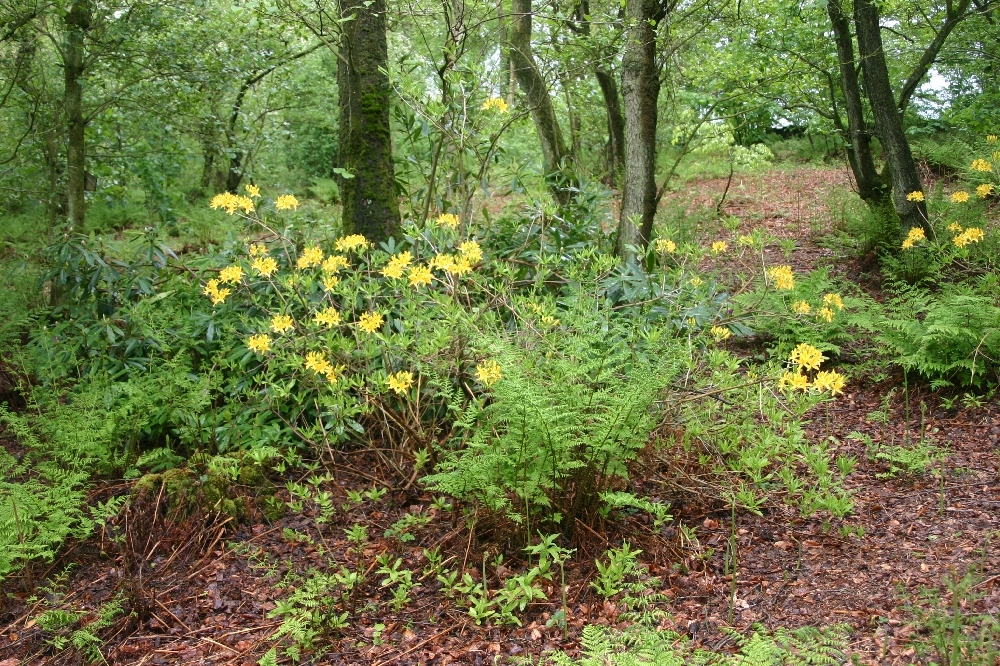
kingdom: Plantae
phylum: Tracheophyta
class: Magnoliopsida
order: Ericales
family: Ericaceae
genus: Rhododendron
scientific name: Rhododendron luteum
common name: Yellow azalea
